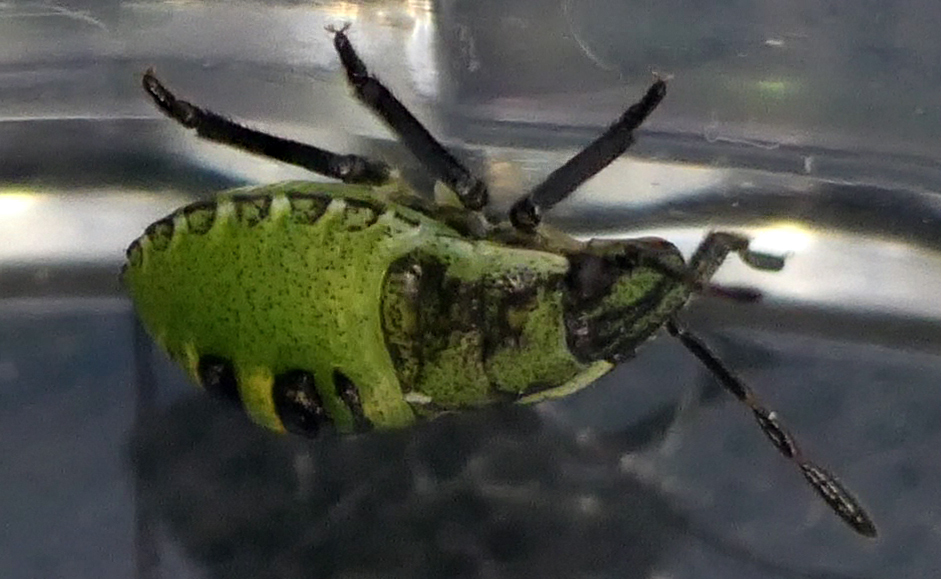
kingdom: Animalia
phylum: Arthropoda
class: Insecta
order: Hemiptera
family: Pentatomidae
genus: Palomena
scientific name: Palomena prasina
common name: Green shieldbug
